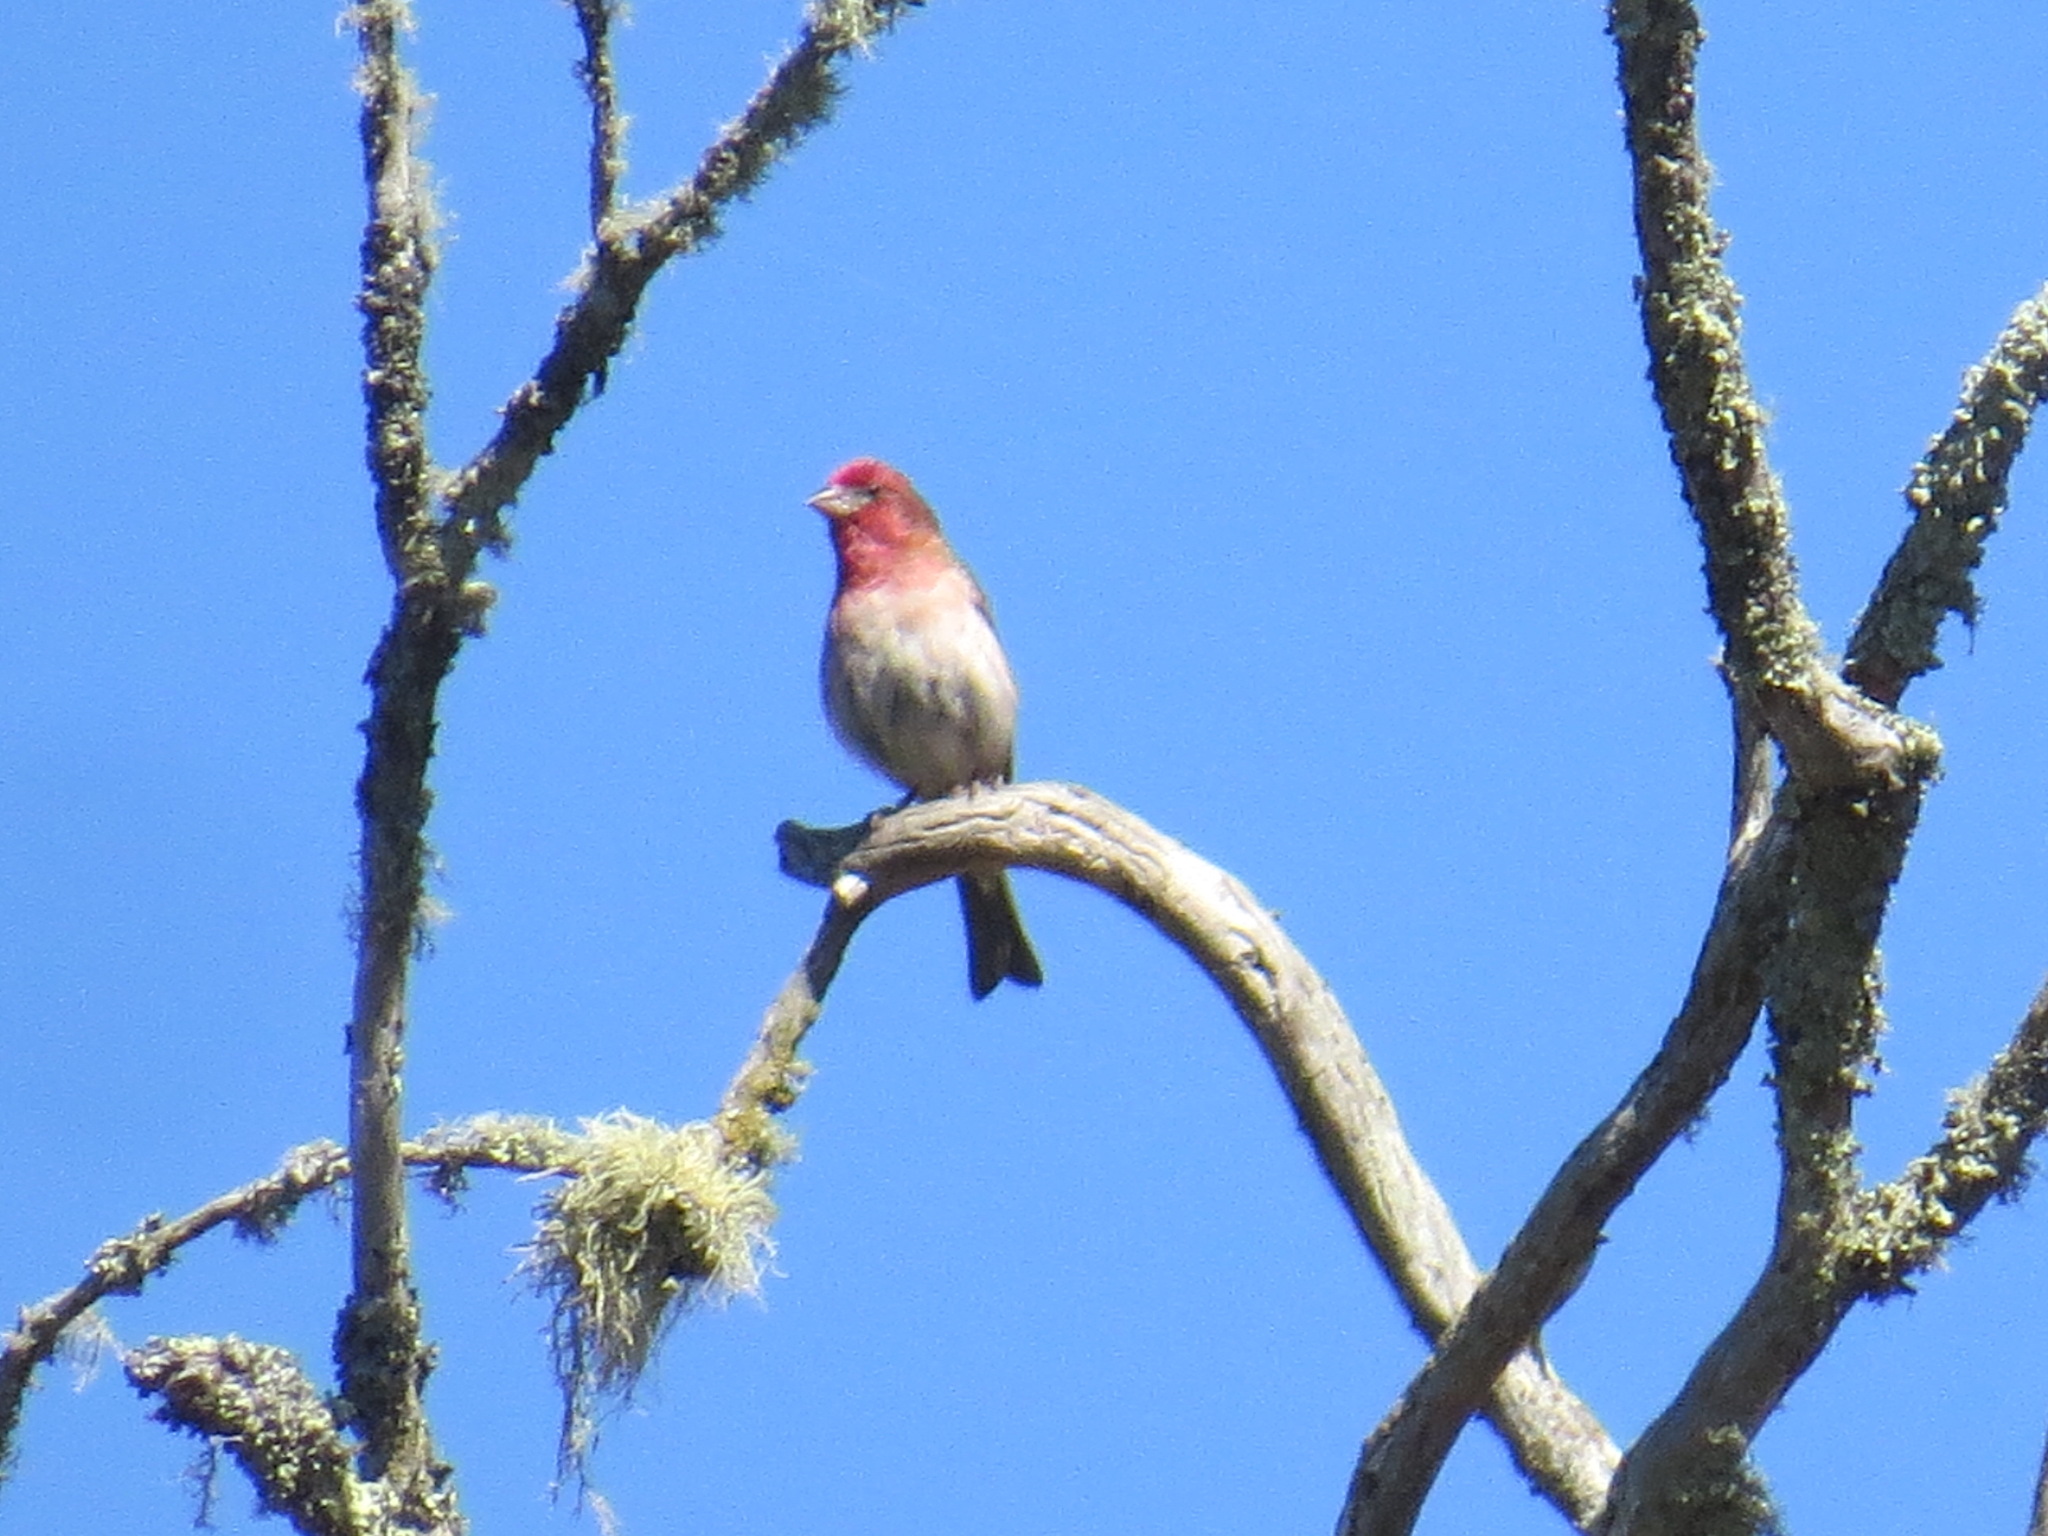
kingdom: Animalia
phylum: Chordata
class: Aves
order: Passeriformes
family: Fringillidae
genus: Haemorhous
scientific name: Haemorhous purpureus
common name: Purple finch
